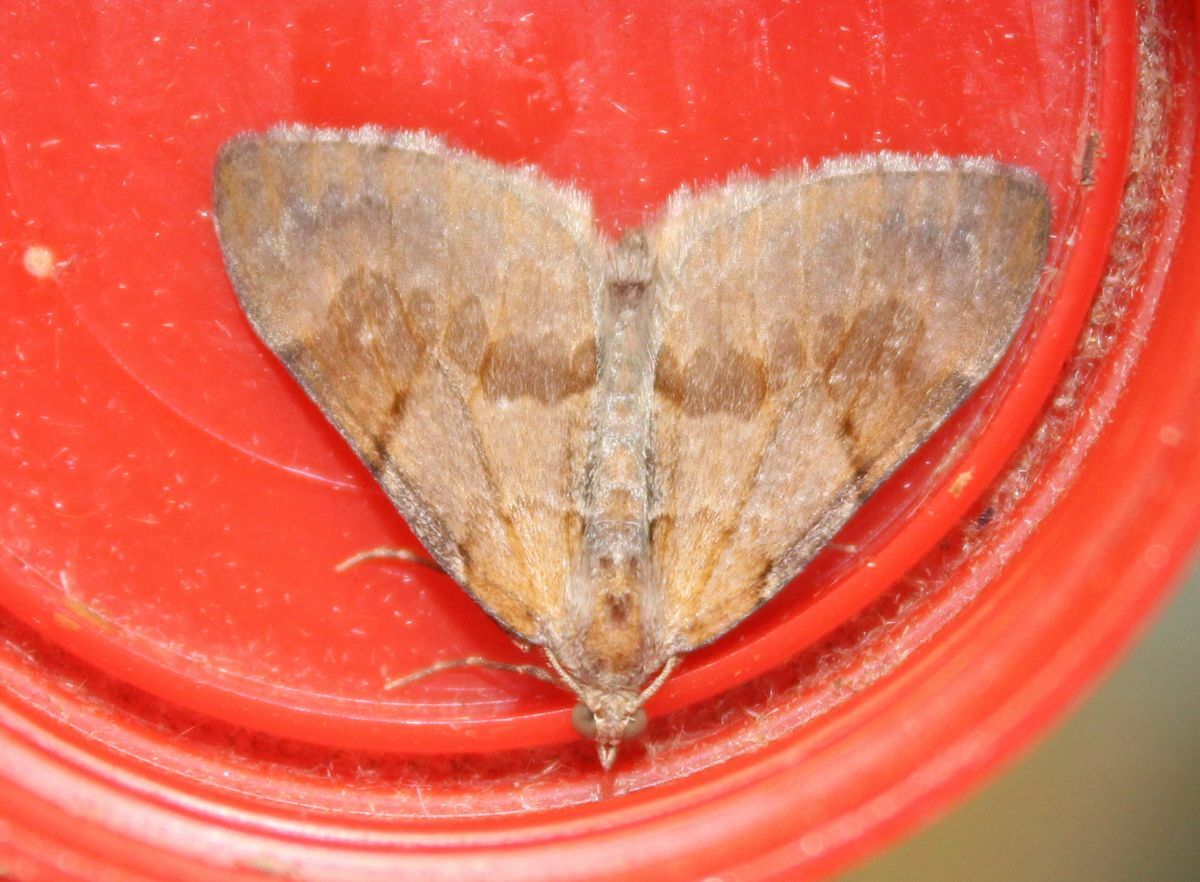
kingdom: Animalia
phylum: Arthropoda
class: Insecta
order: Lepidoptera
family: Geometridae
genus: Pennithera
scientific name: Pennithera firmata
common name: Pine carpet
